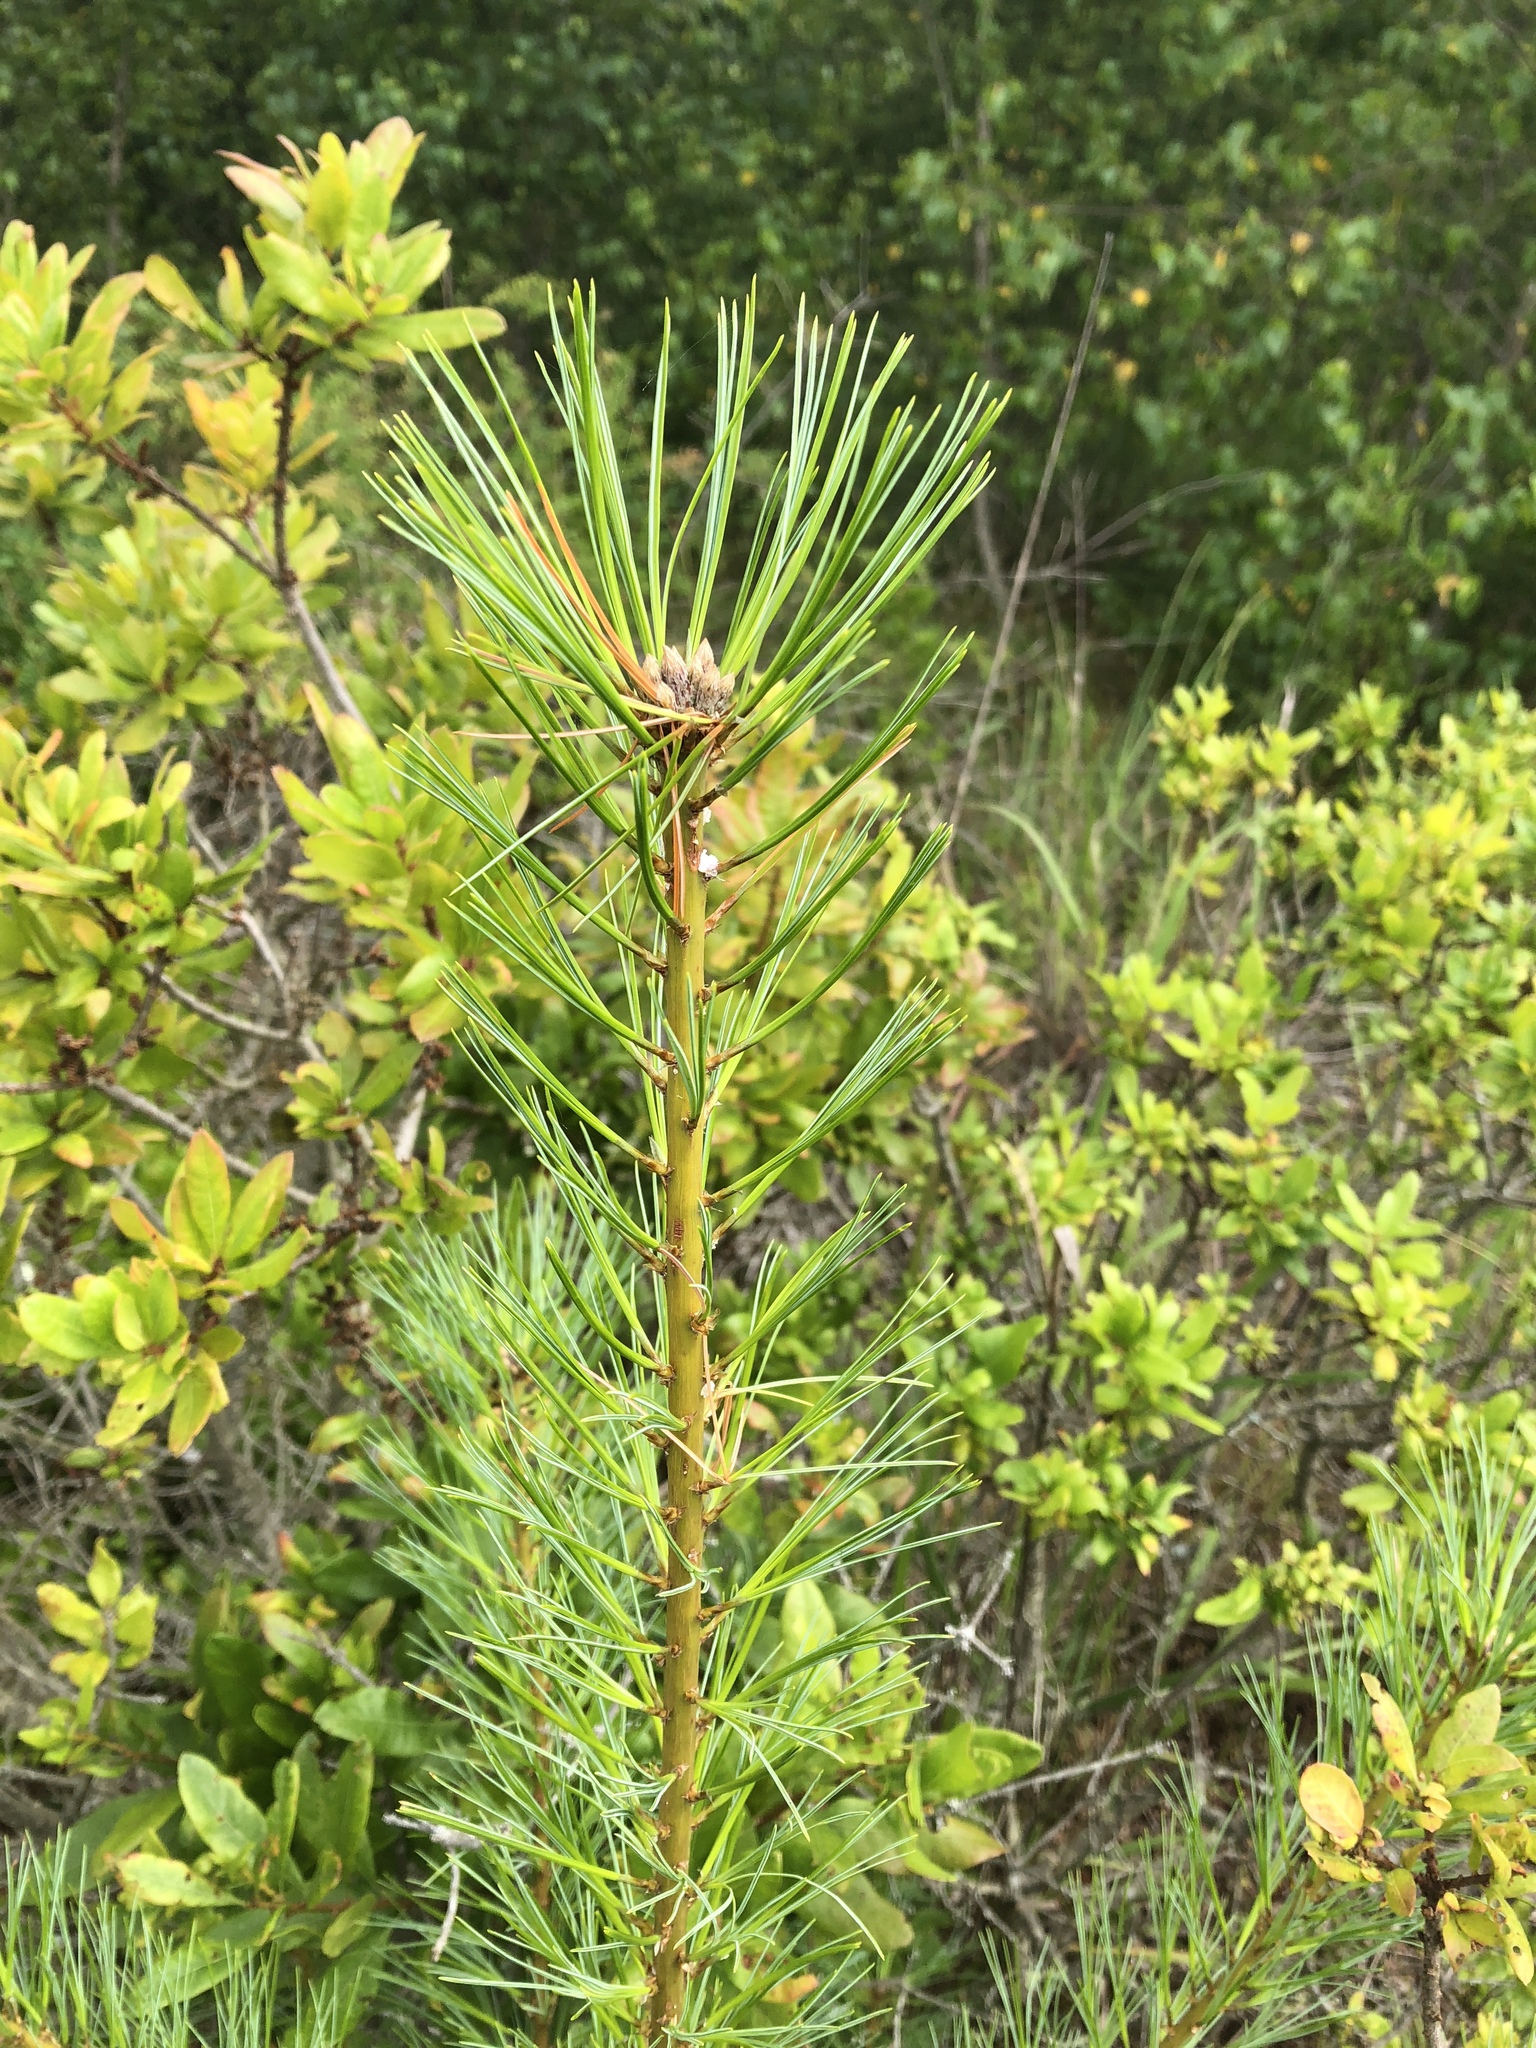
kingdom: Plantae
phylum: Tracheophyta
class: Pinopsida
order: Pinales
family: Pinaceae
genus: Pinus
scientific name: Pinus strobus
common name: Weymouth pine
